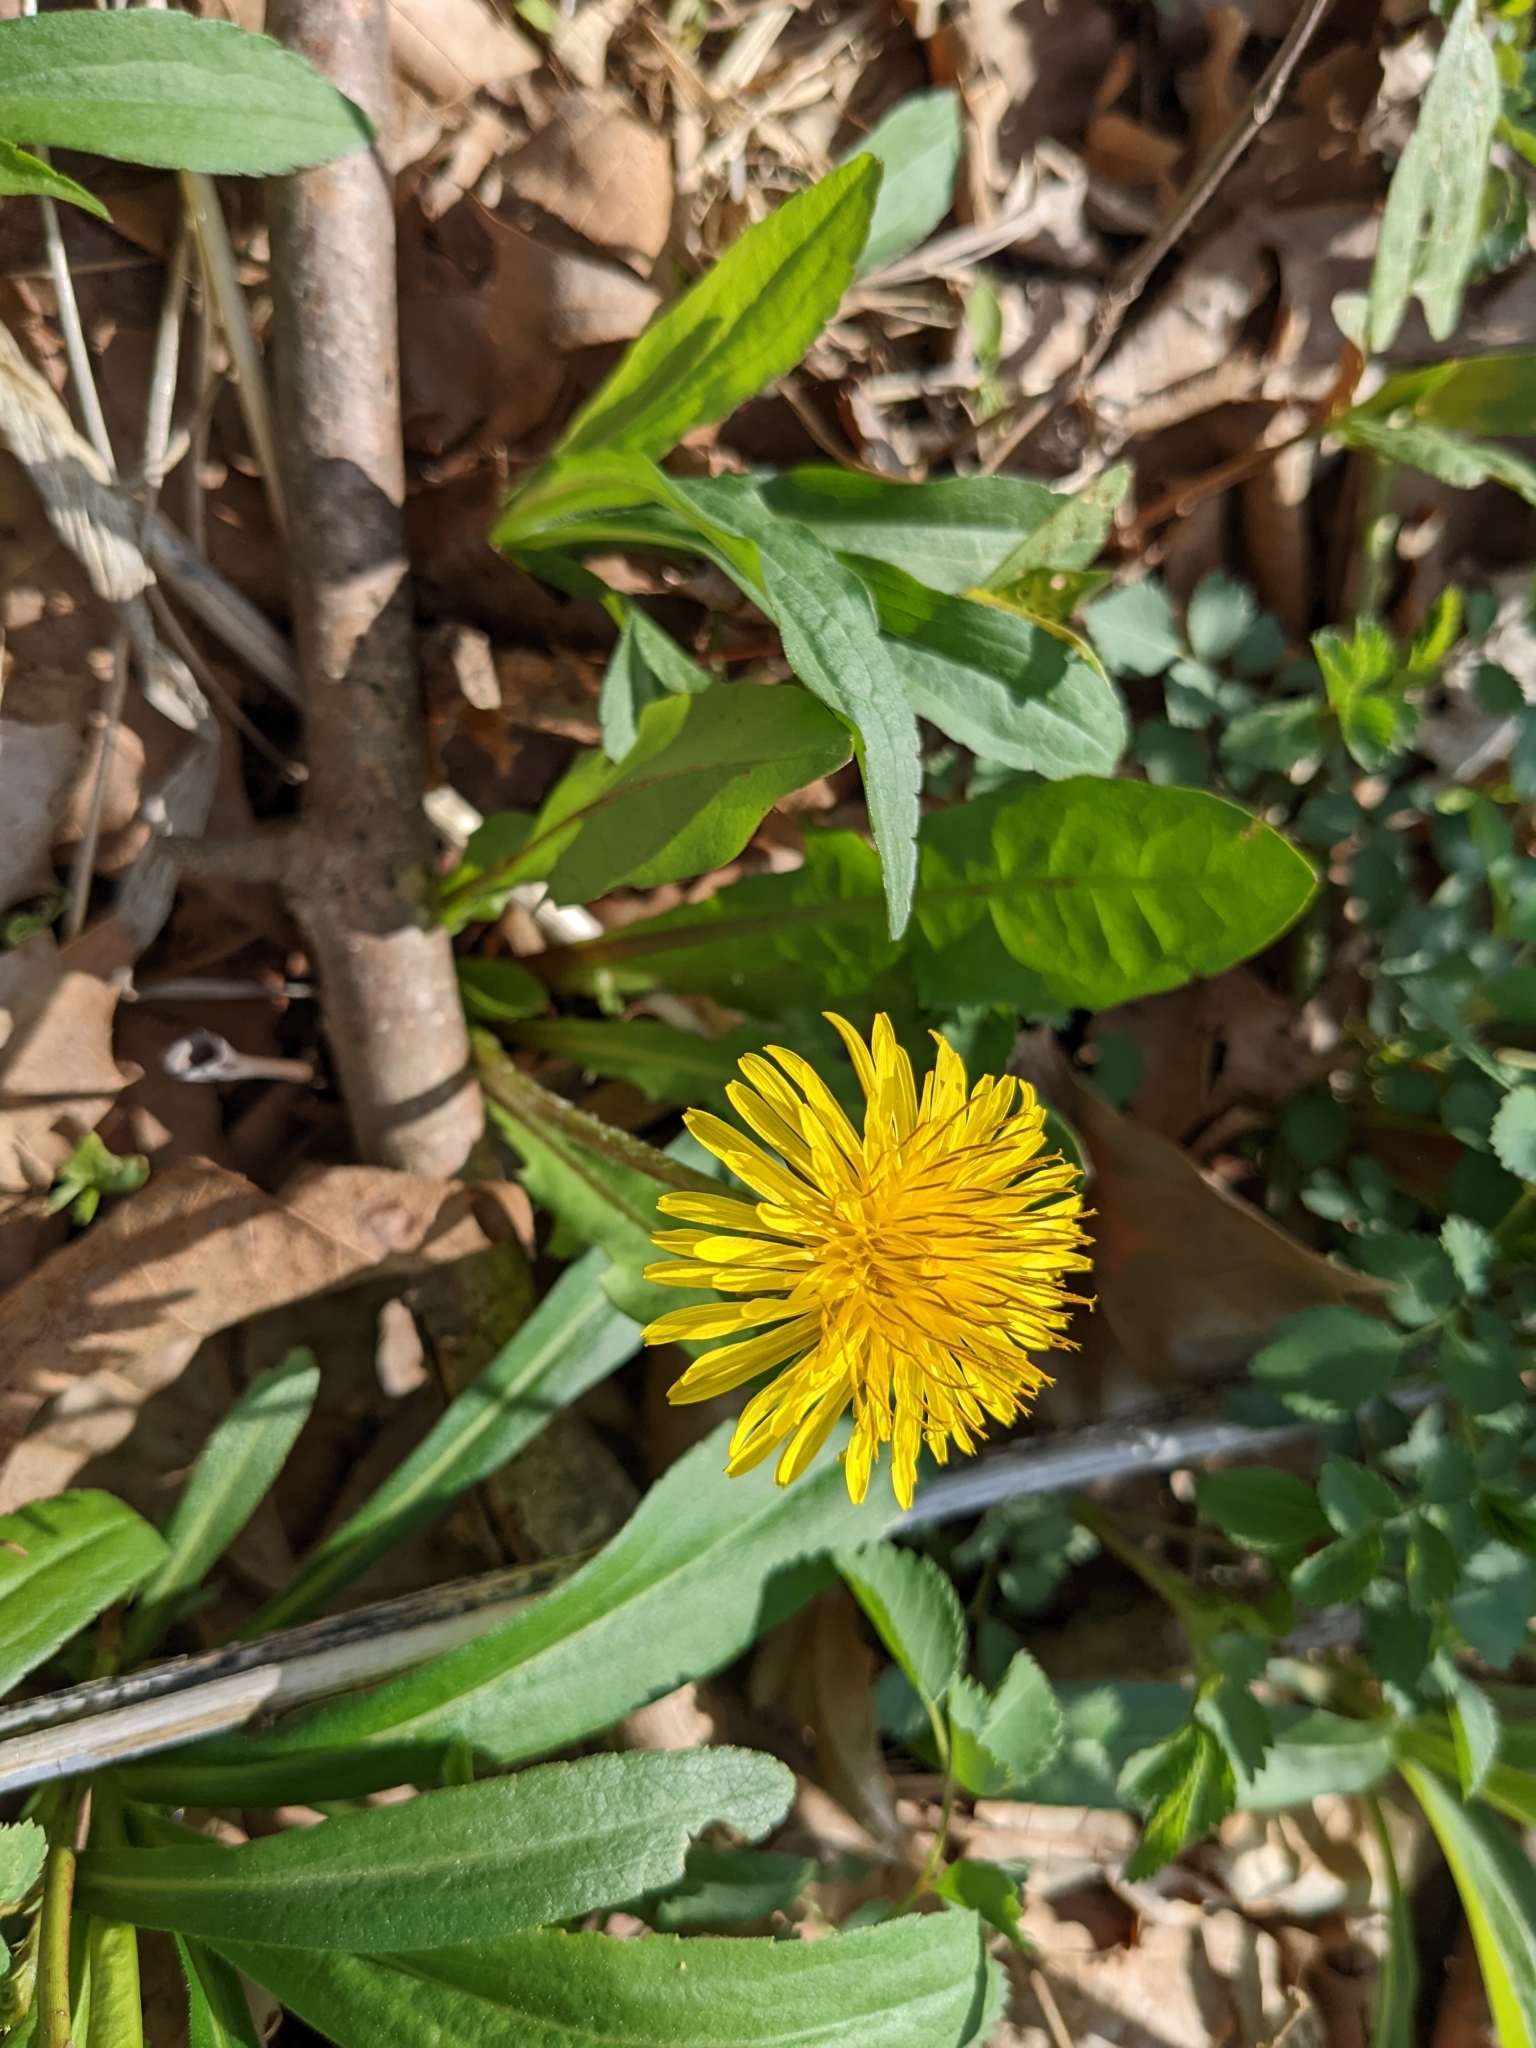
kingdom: Plantae
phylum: Tracheophyta
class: Magnoliopsida
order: Asterales
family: Asteraceae
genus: Taraxacum
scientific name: Taraxacum
